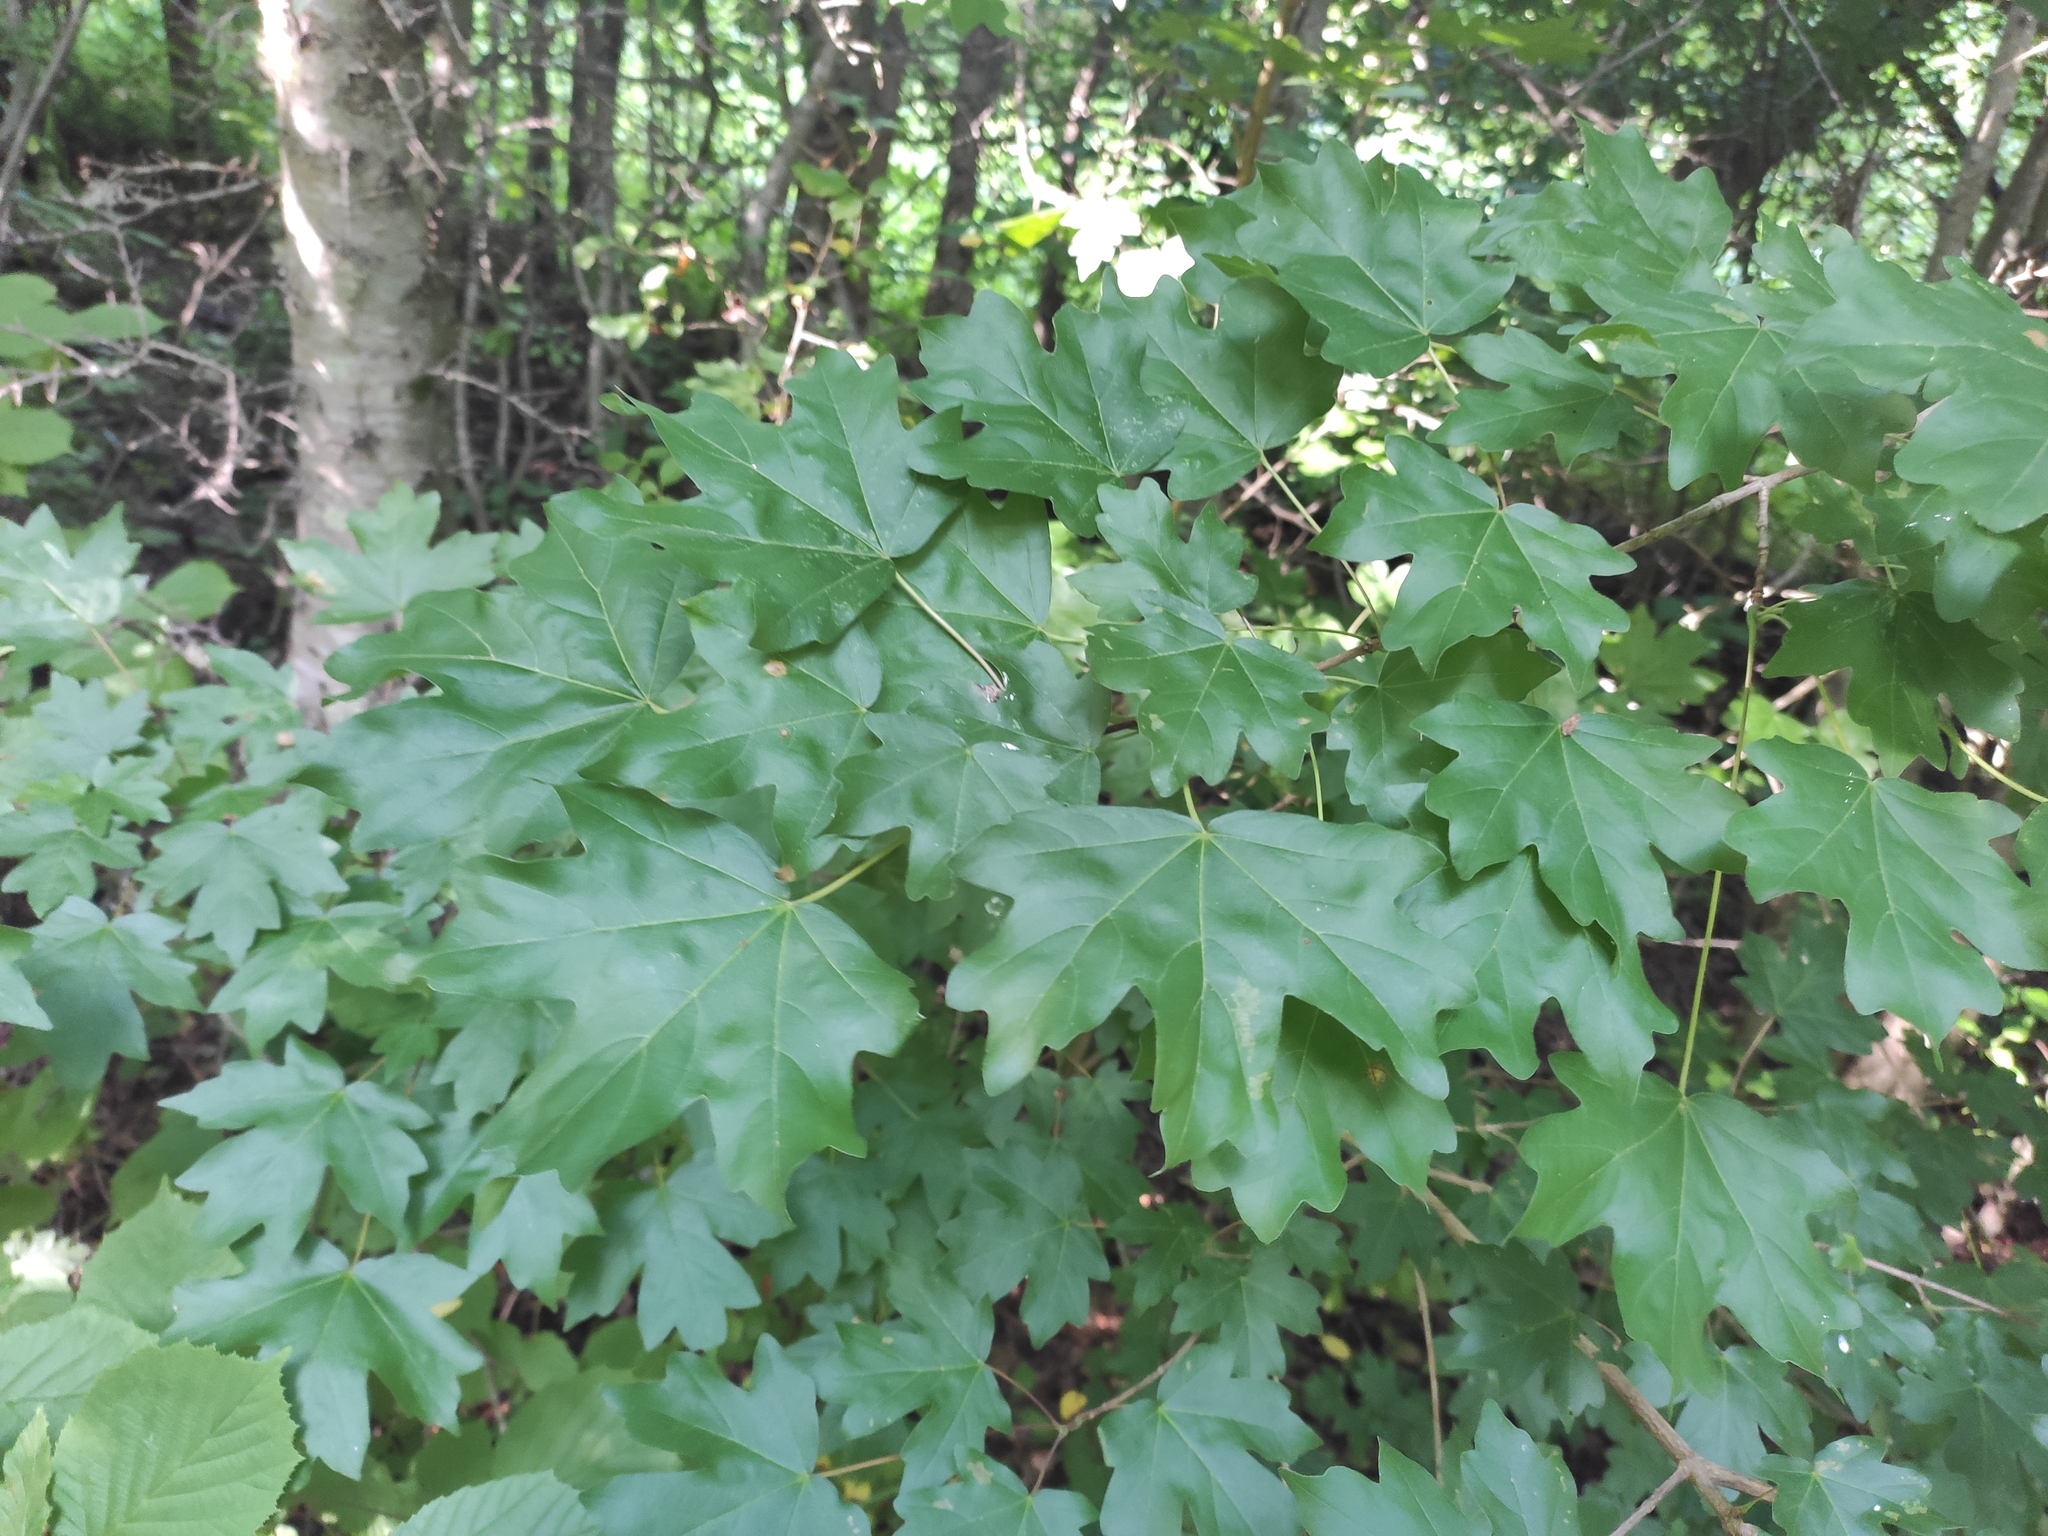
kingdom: Plantae
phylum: Tracheophyta
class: Magnoliopsida
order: Sapindales
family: Sapindaceae
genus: Acer
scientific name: Acer campestre
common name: Field maple
